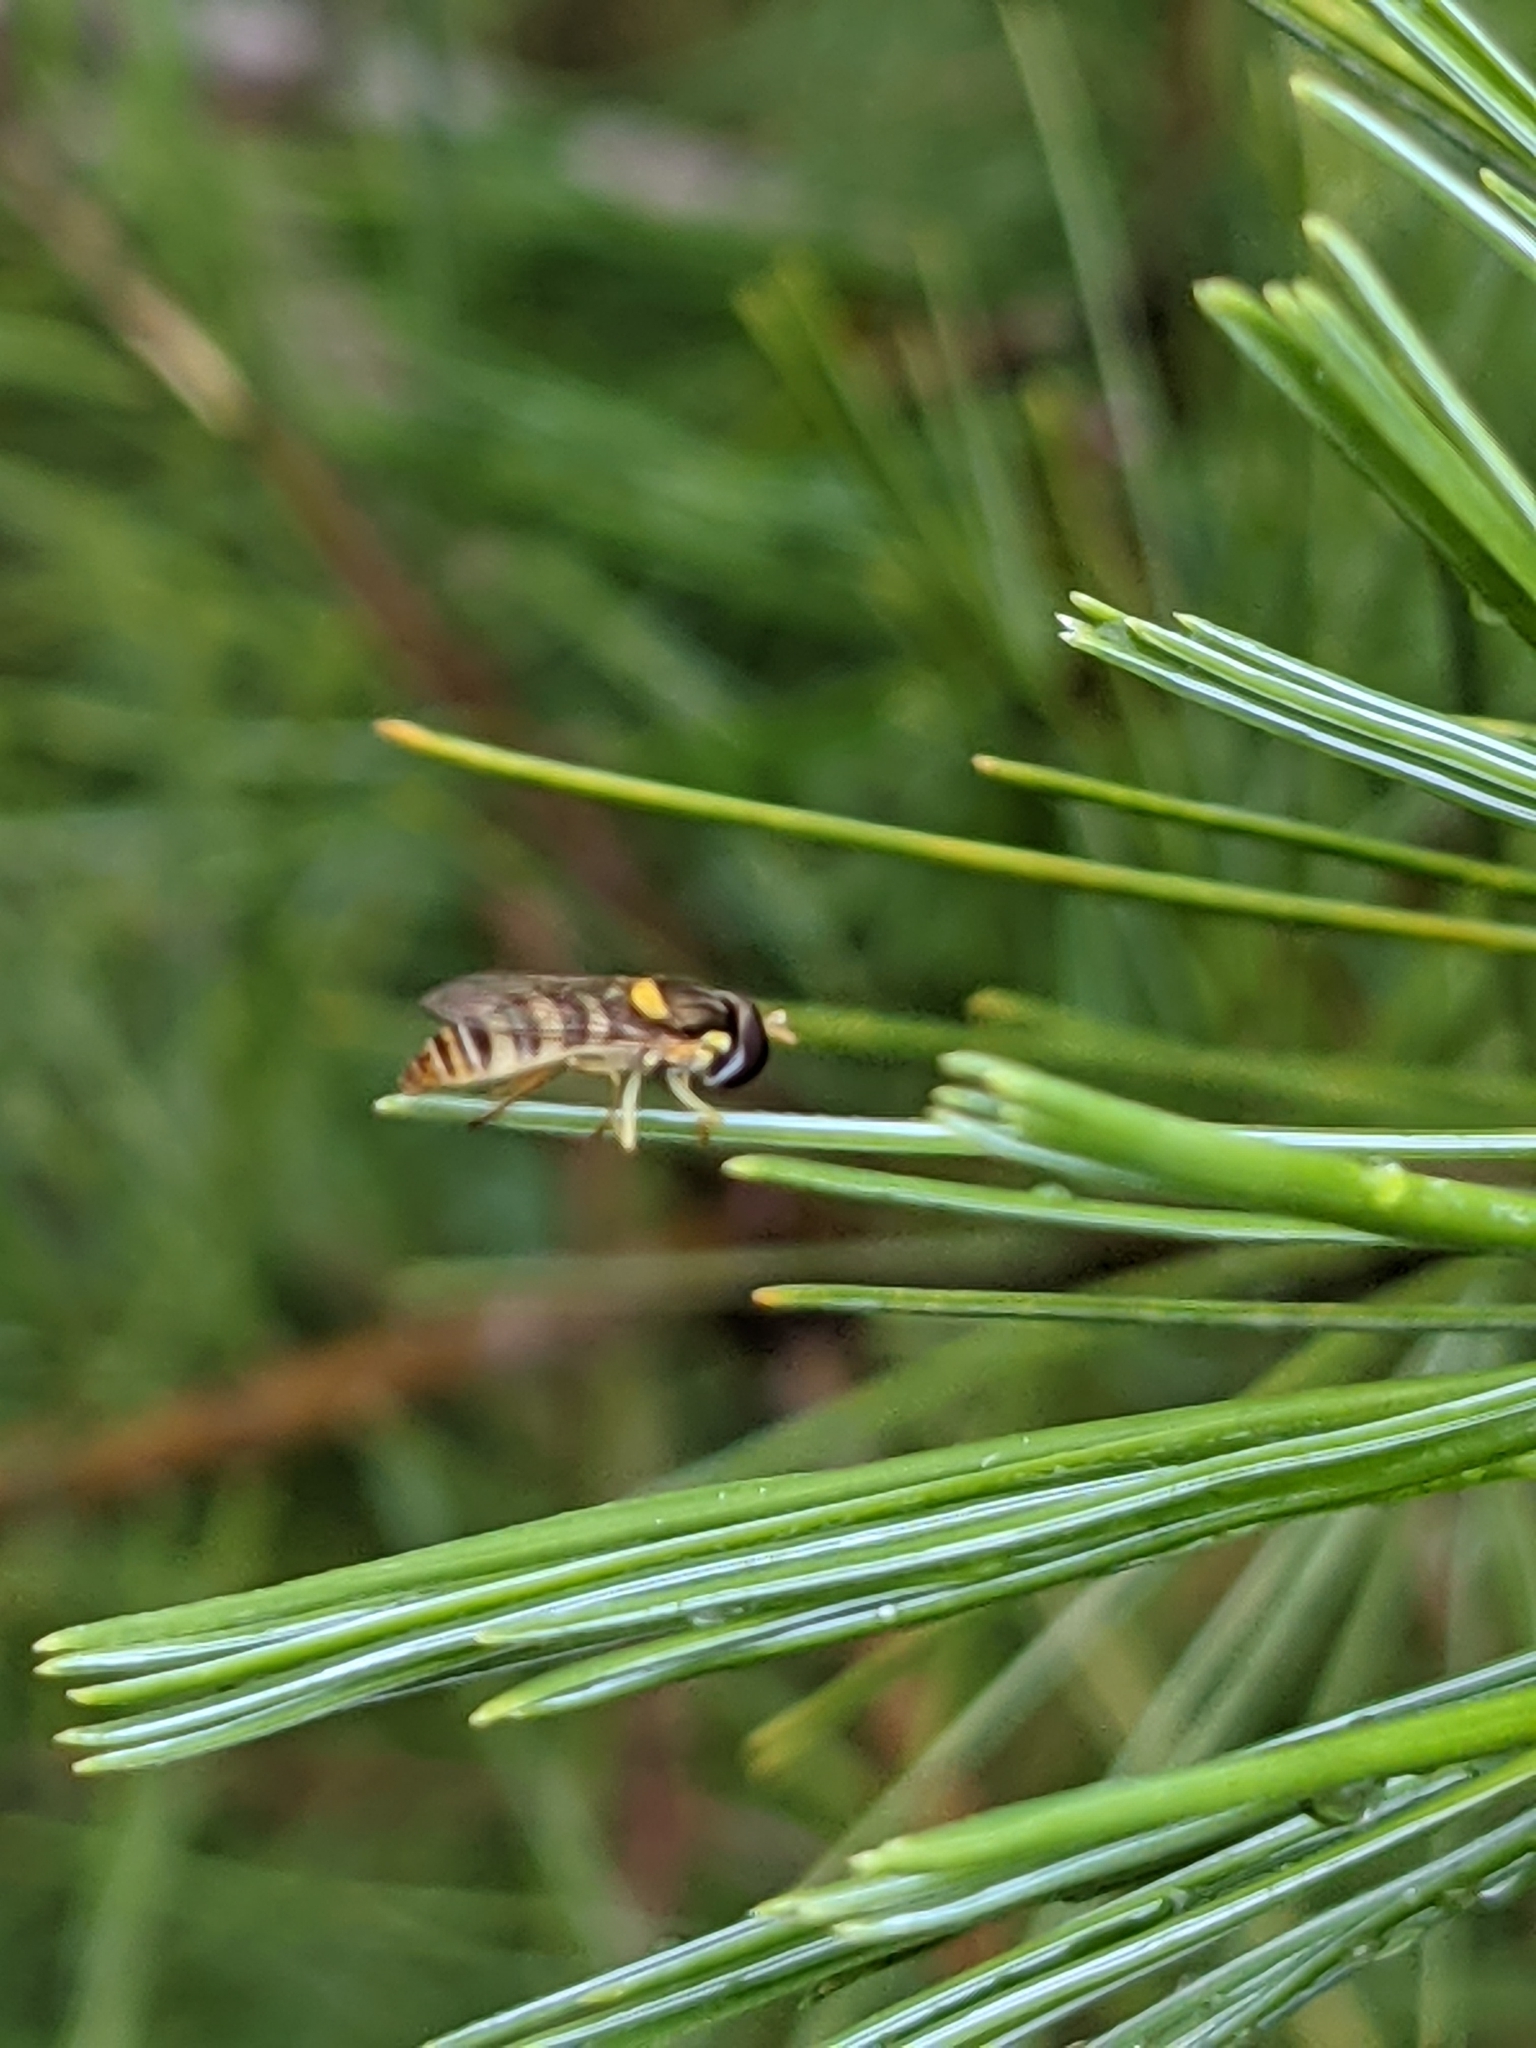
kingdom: Animalia
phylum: Arthropoda
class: Insecta
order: Diptera
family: Syrphidae
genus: Sphaerophoria
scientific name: Sphaerophoria contigua
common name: Tufted globetail
